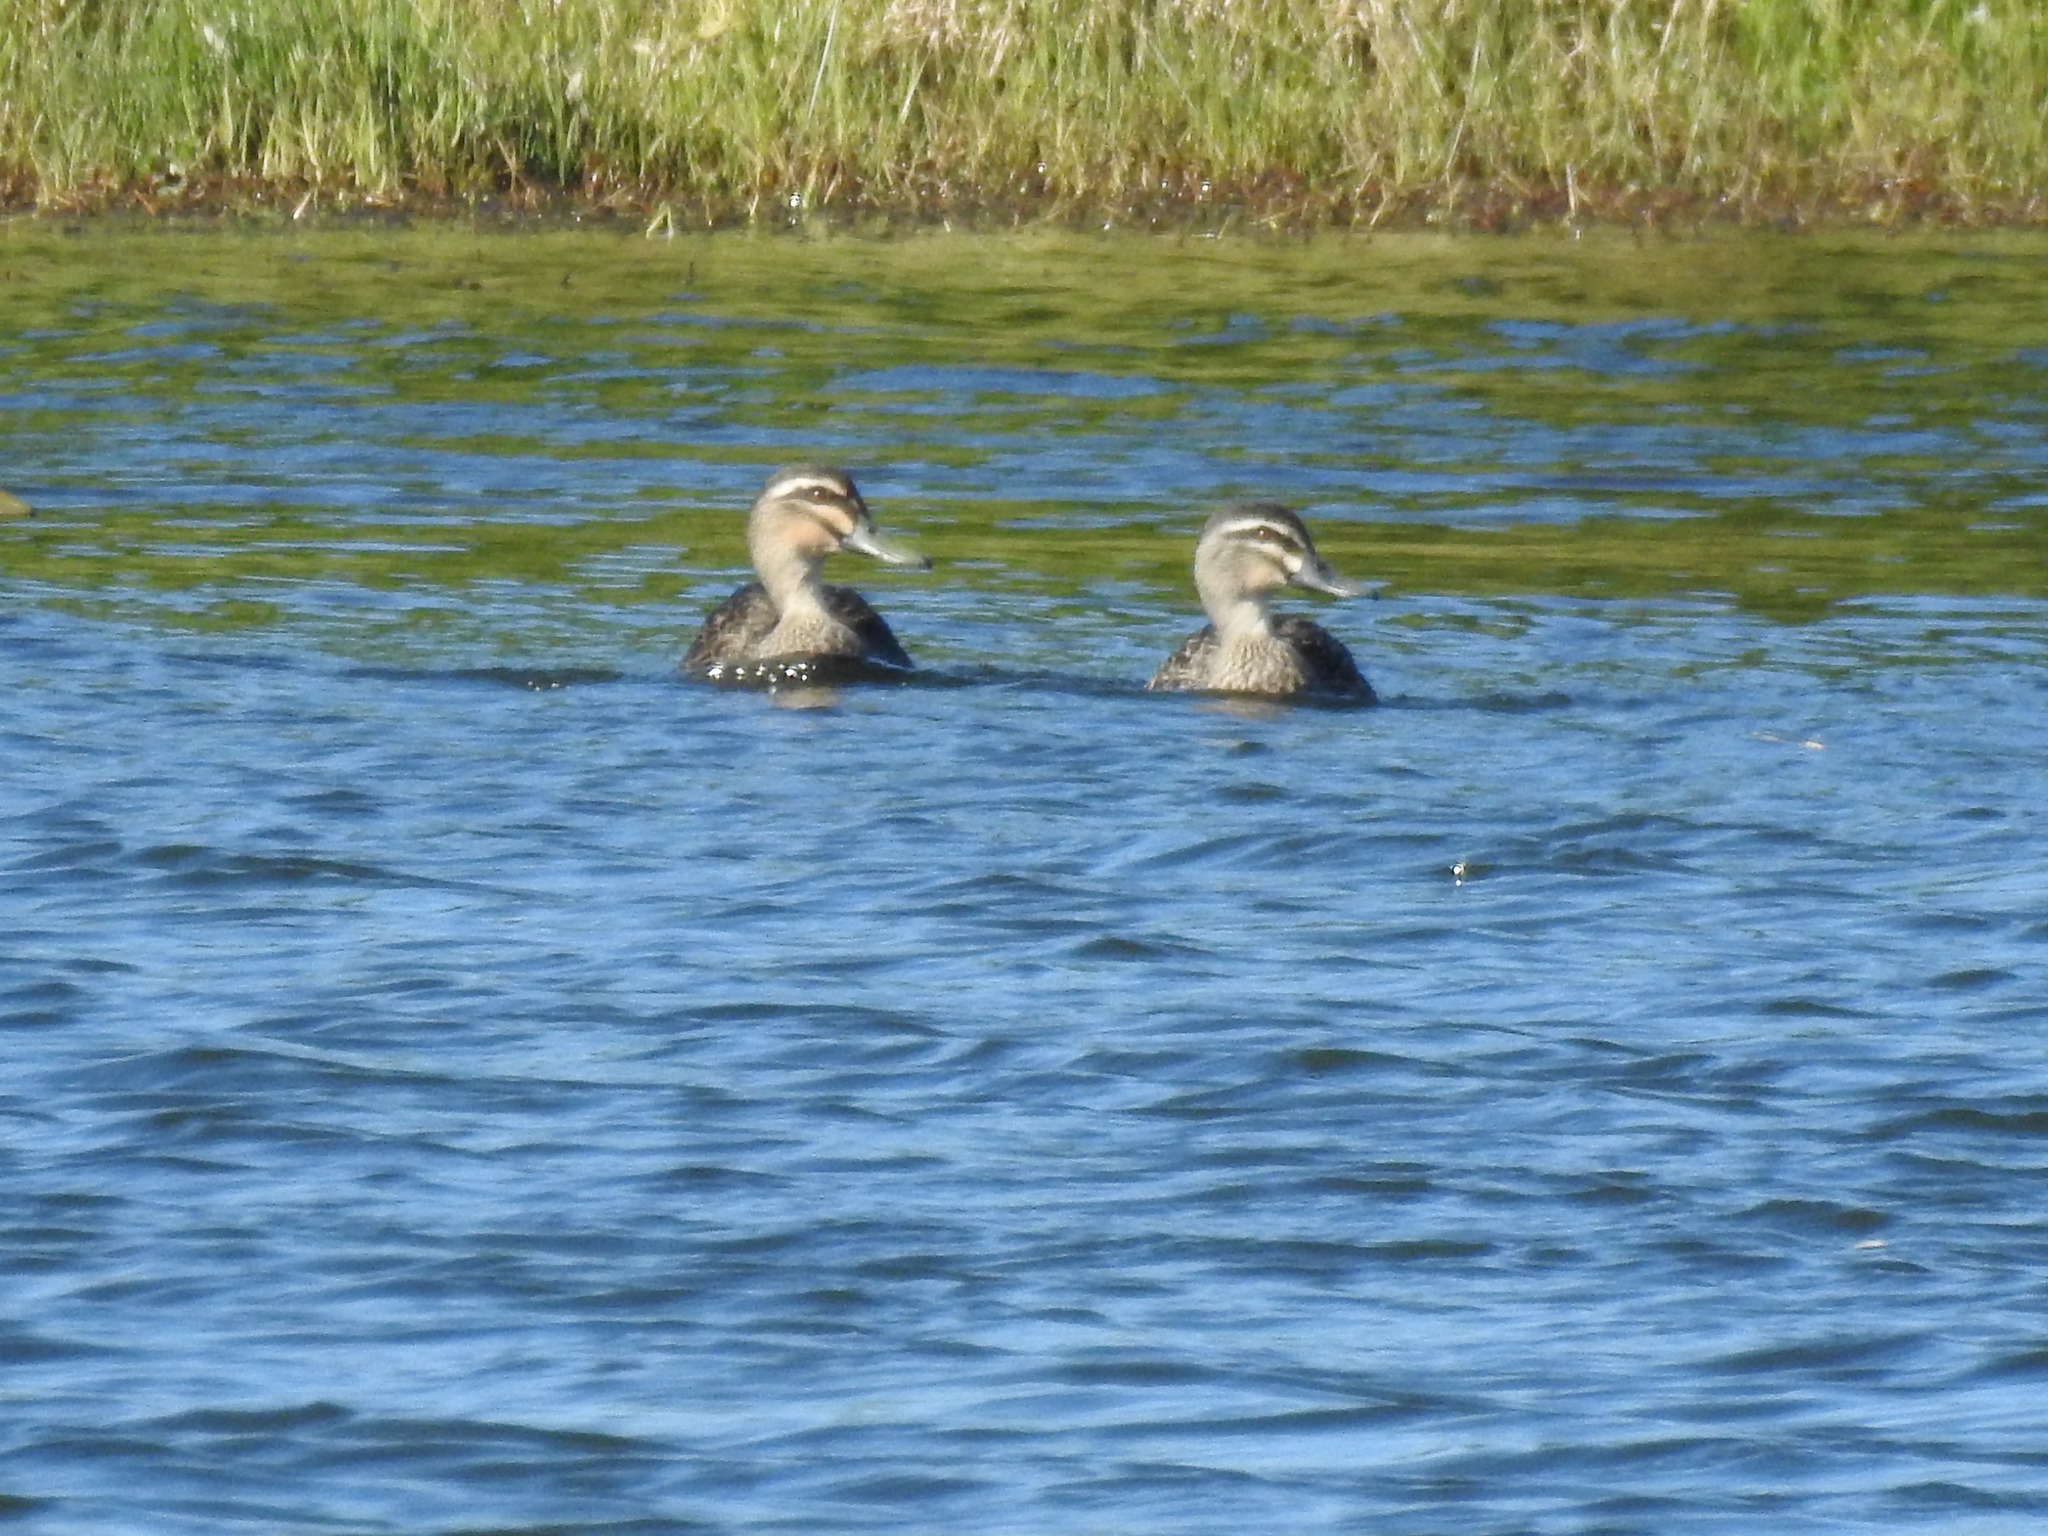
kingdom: Animalia
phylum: Chordata
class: Aves
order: Anseriformes
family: Anatidae
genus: Anas
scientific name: Anas superciliosa
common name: Pacific black duck
